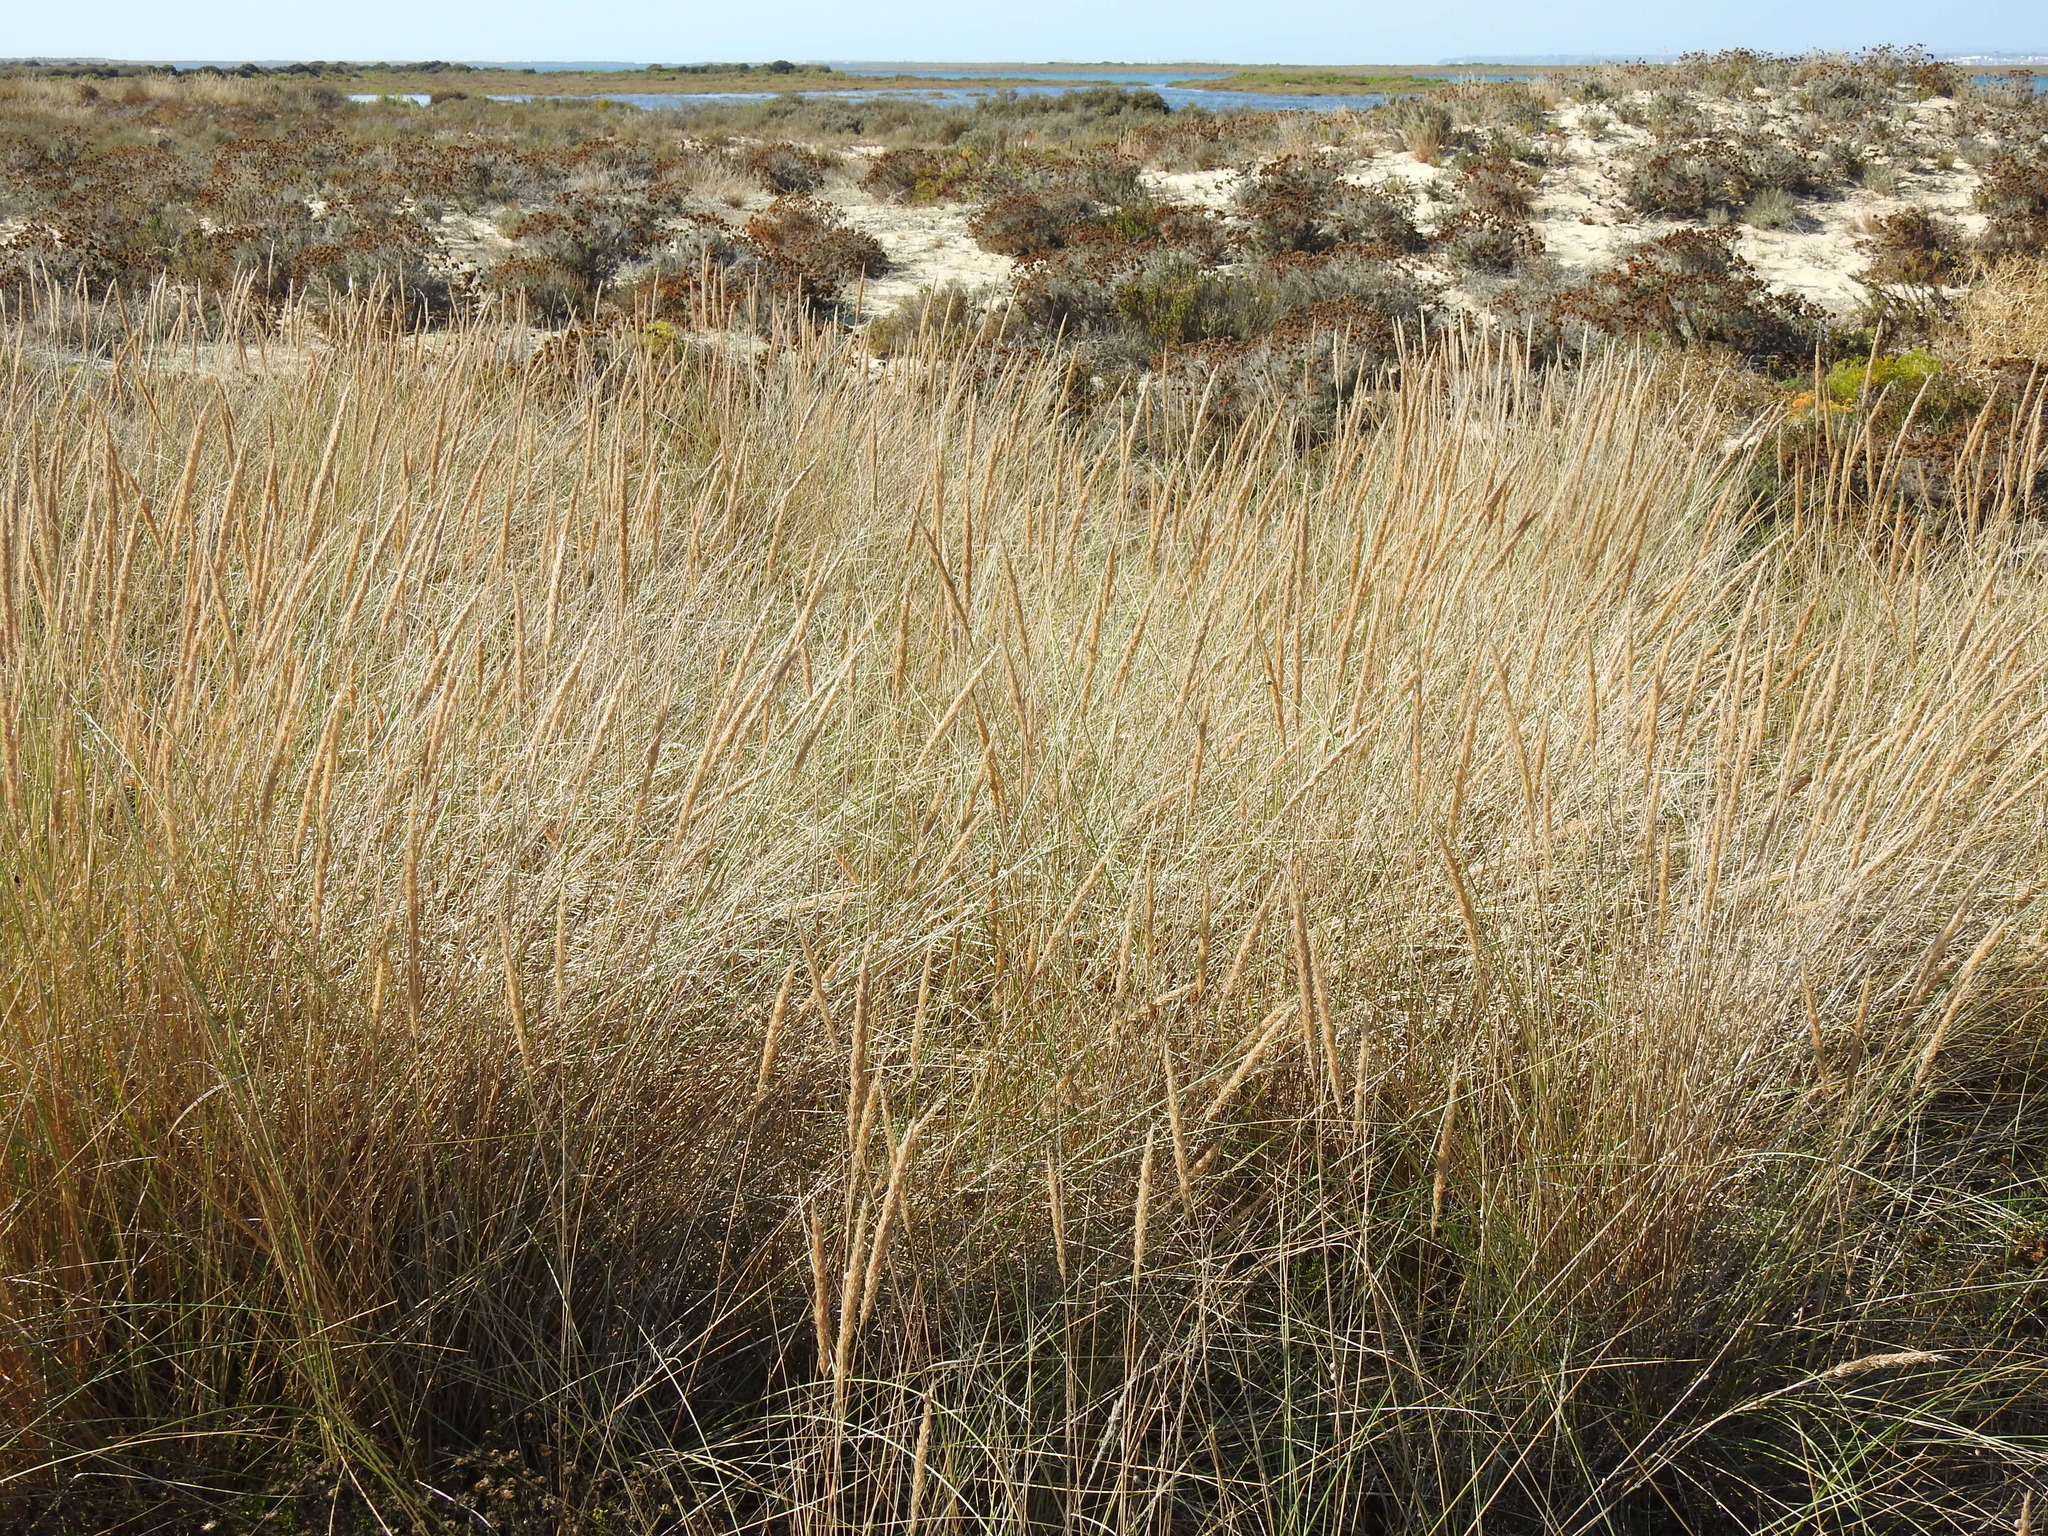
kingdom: Plantae
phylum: Tracheophyta
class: Liliopsida
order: Poales
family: Poaceae
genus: Calamagrostis
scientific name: Calamagrostis arenaria
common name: European beachgrass
